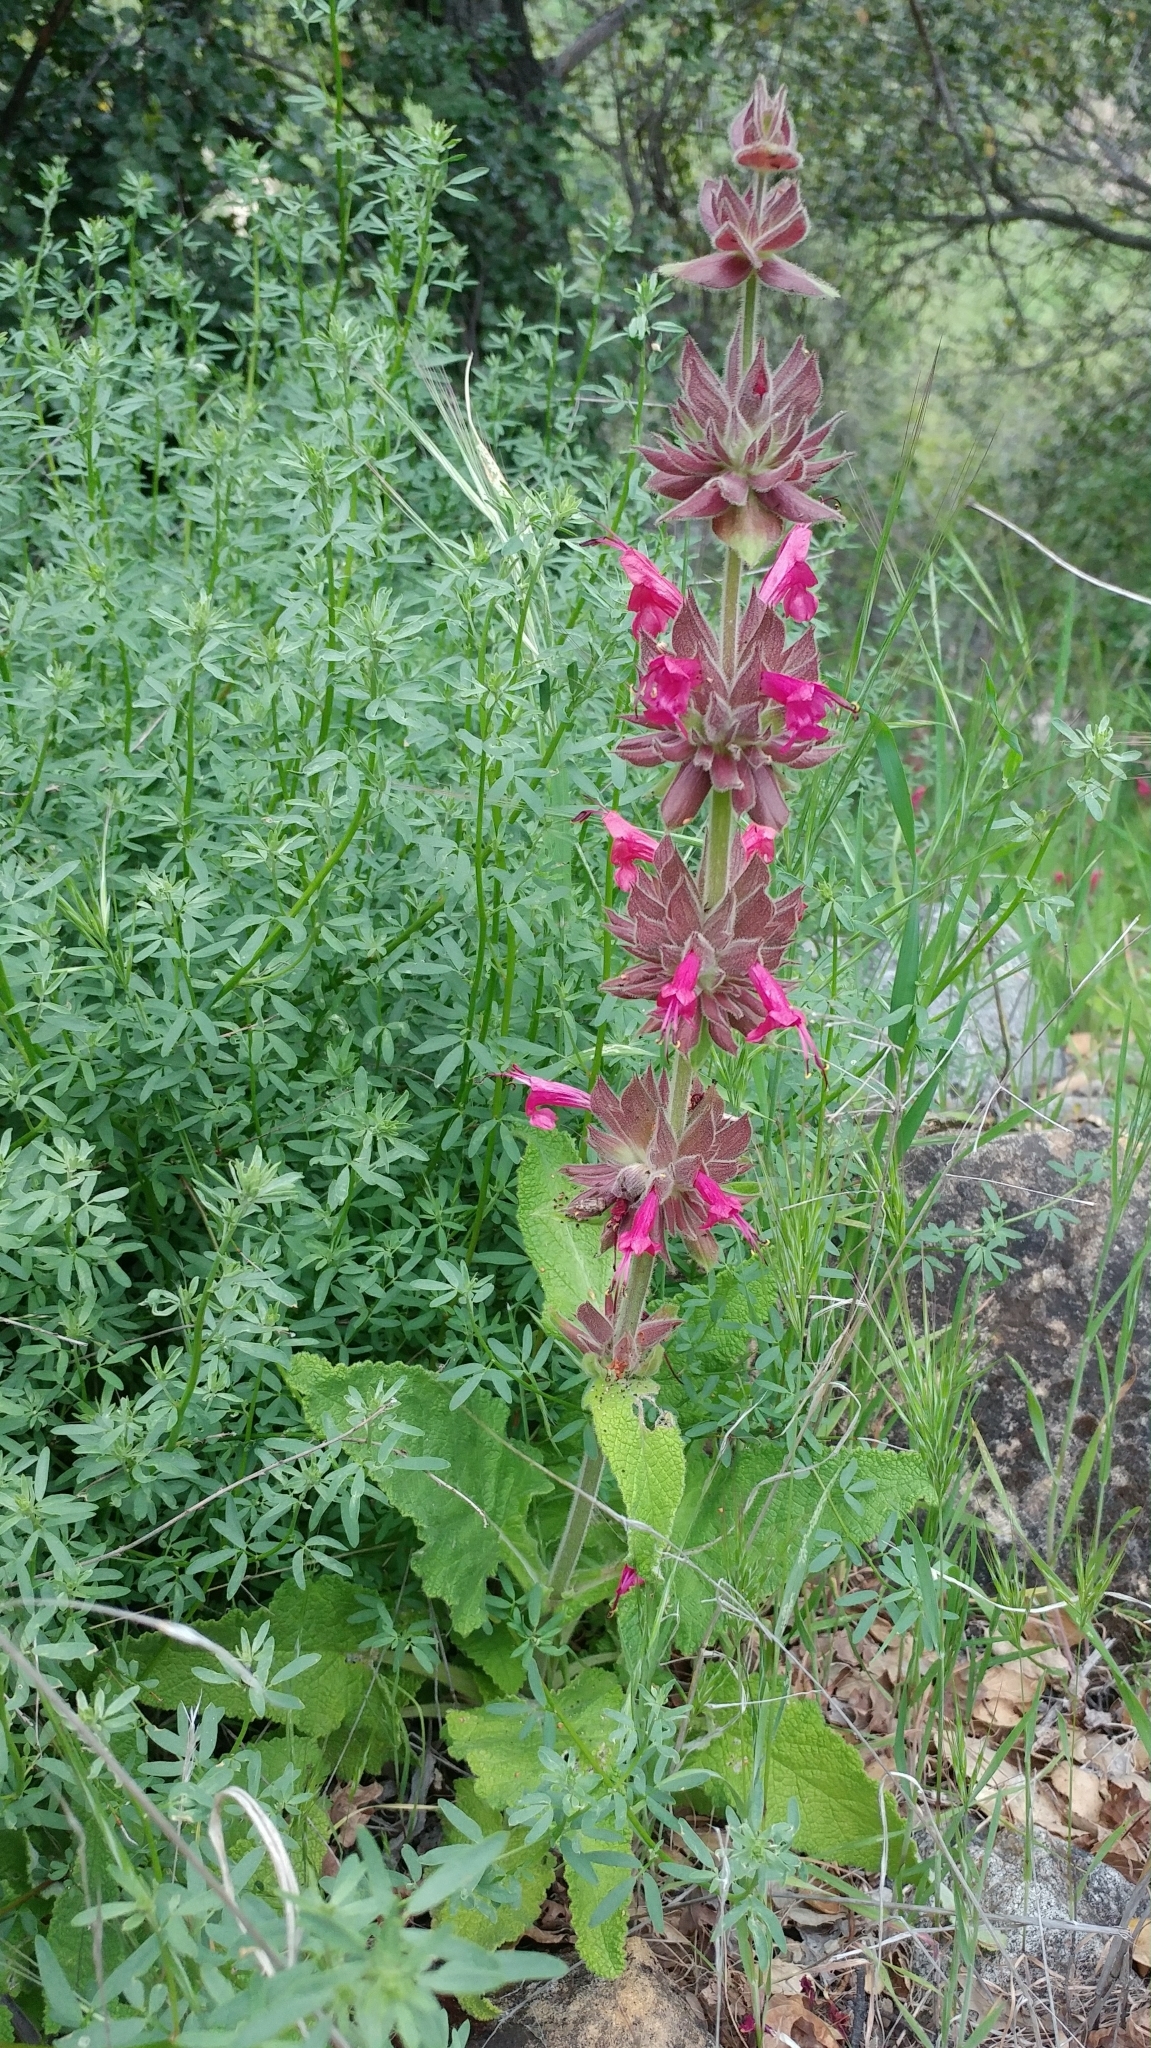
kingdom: Plantae
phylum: Tracheophyta
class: Magnoliopsida
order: Lamiales
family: Lamiaceae
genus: Salvia
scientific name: Salvia spathacea
